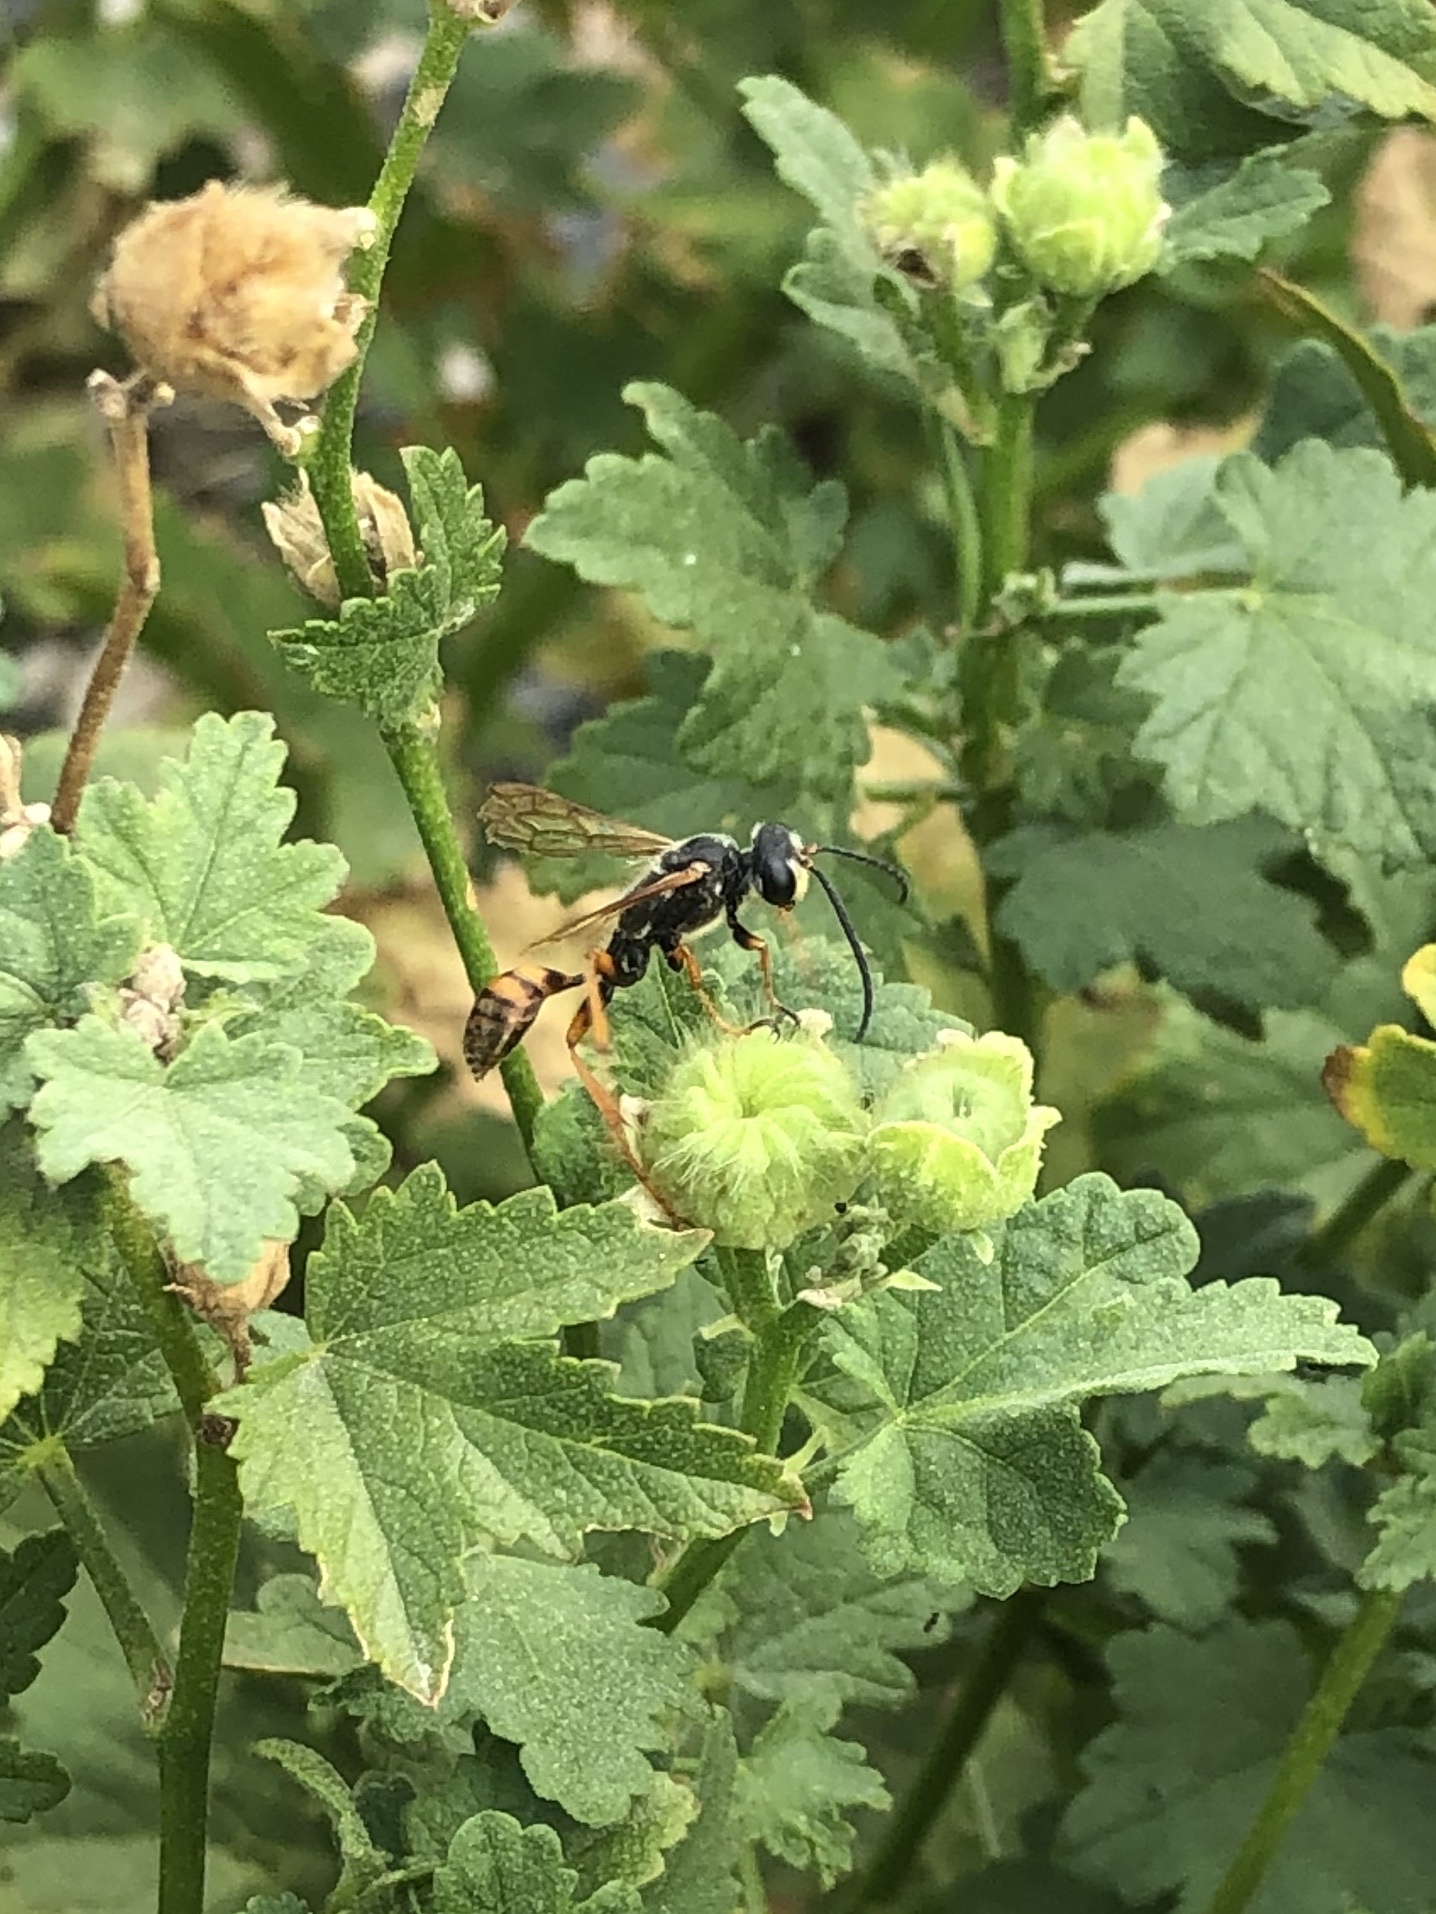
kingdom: Animalia
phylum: Arthropoda
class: Insecta
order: Hymenoptera
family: Sphecidae
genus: Isodontia
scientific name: Isodontia elegans
